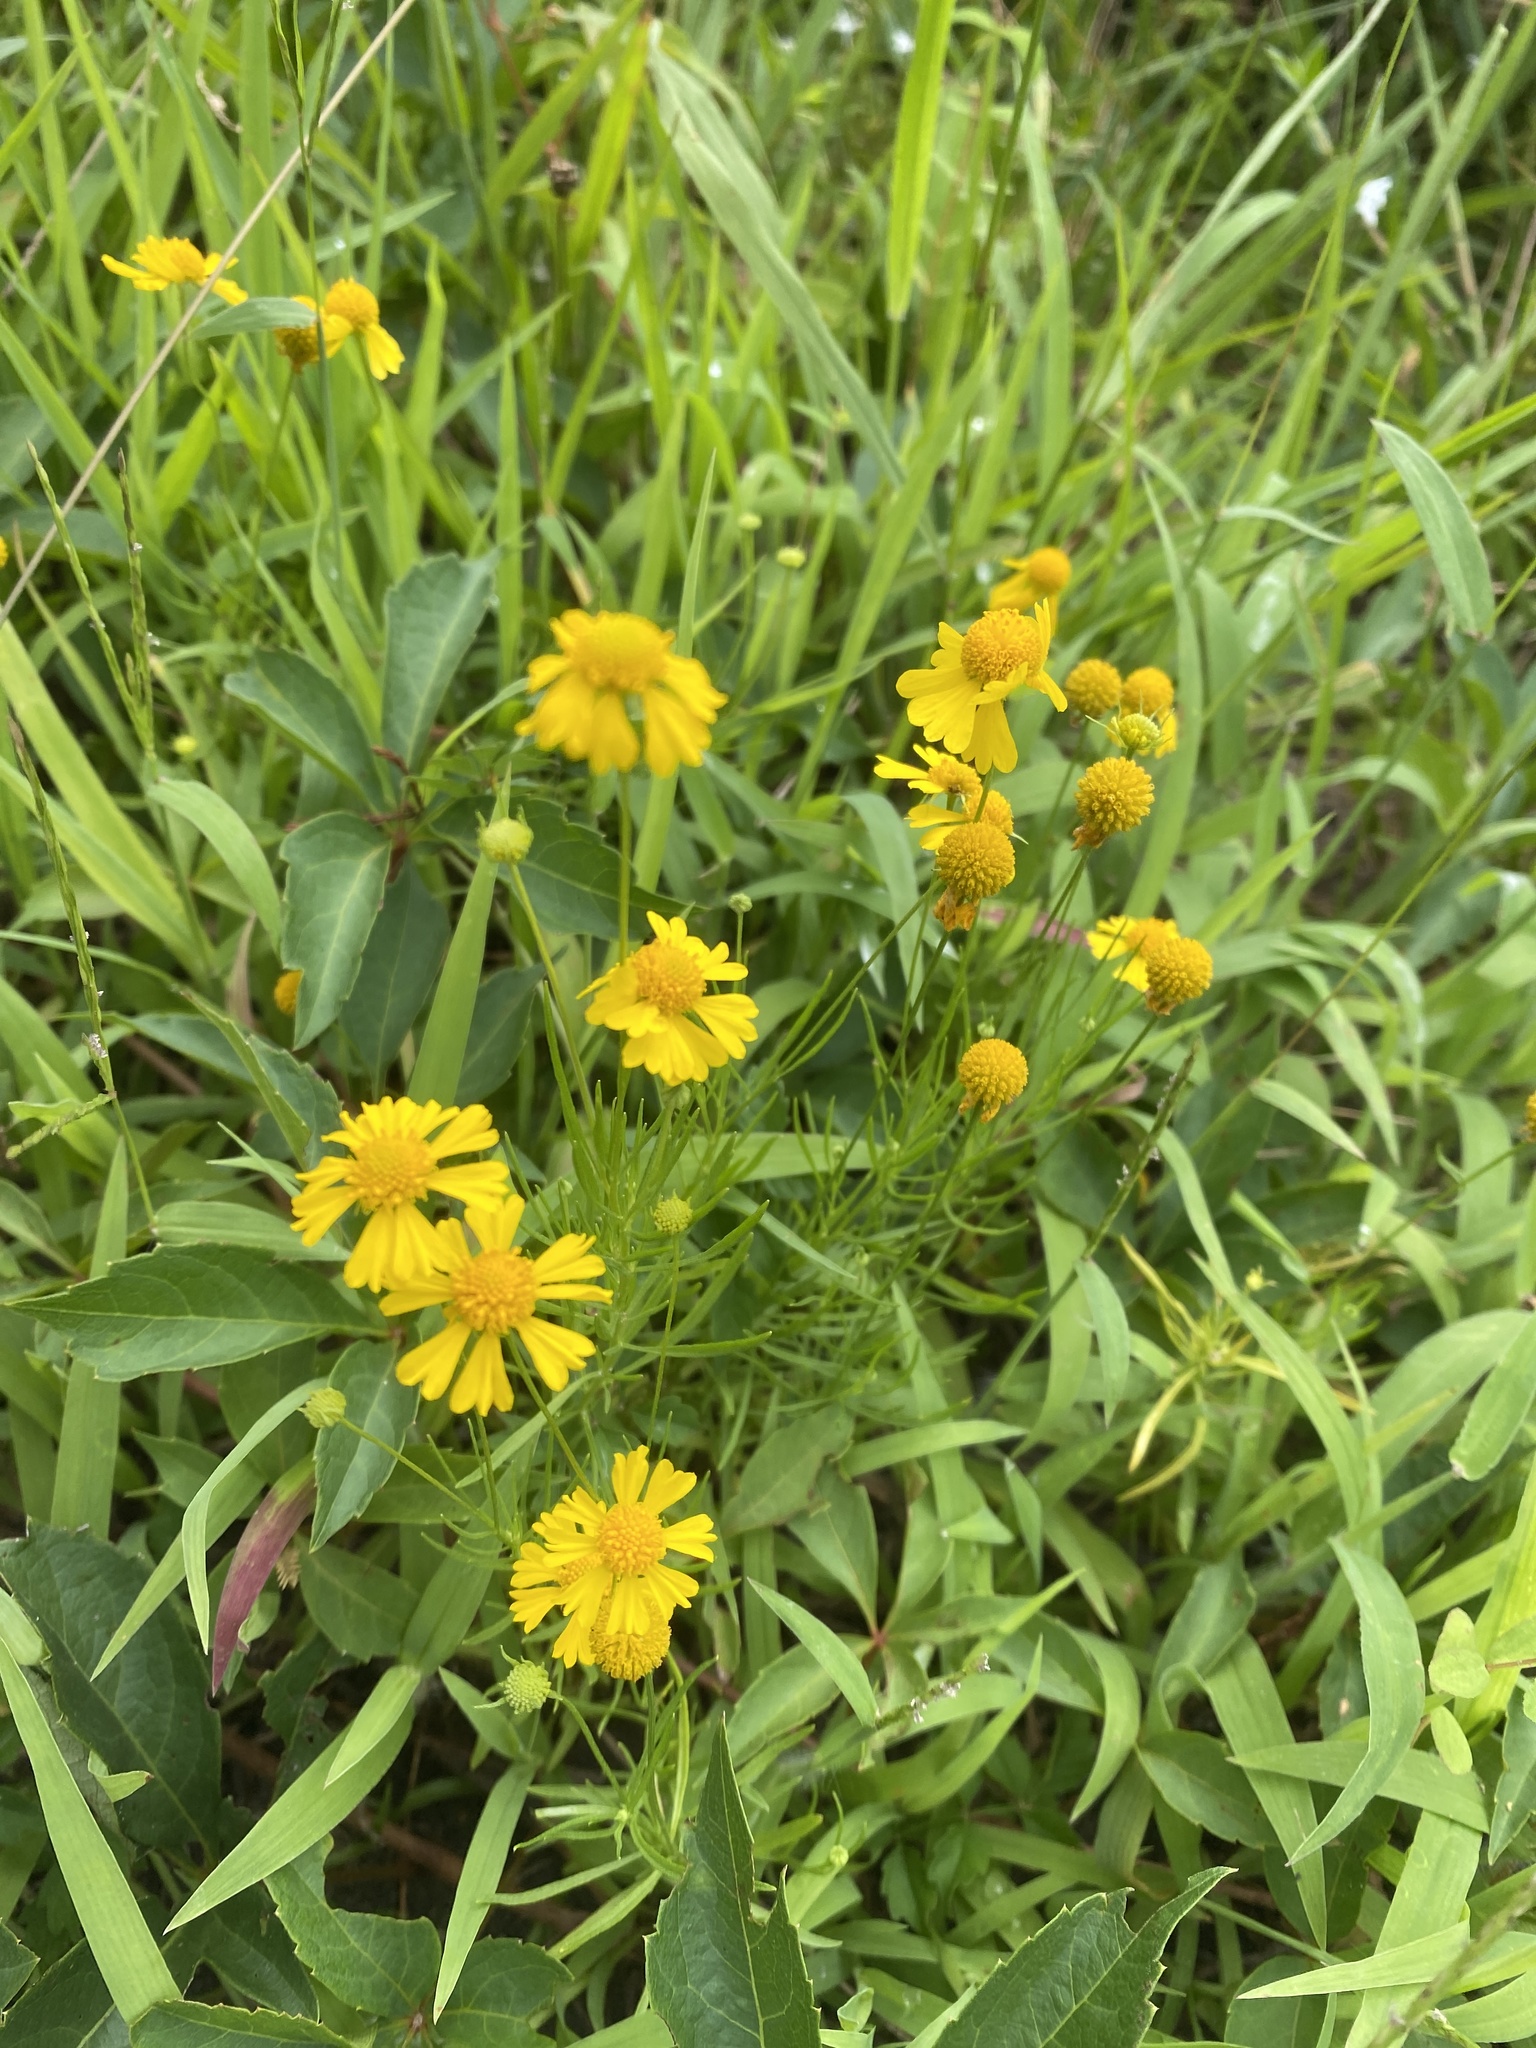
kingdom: Plantae
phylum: Tracheophyta
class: Magnoliopsida
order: Asterales
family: Asteraceae
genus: Helenium
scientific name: Helenium amarum
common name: Bitter sneezeweed
